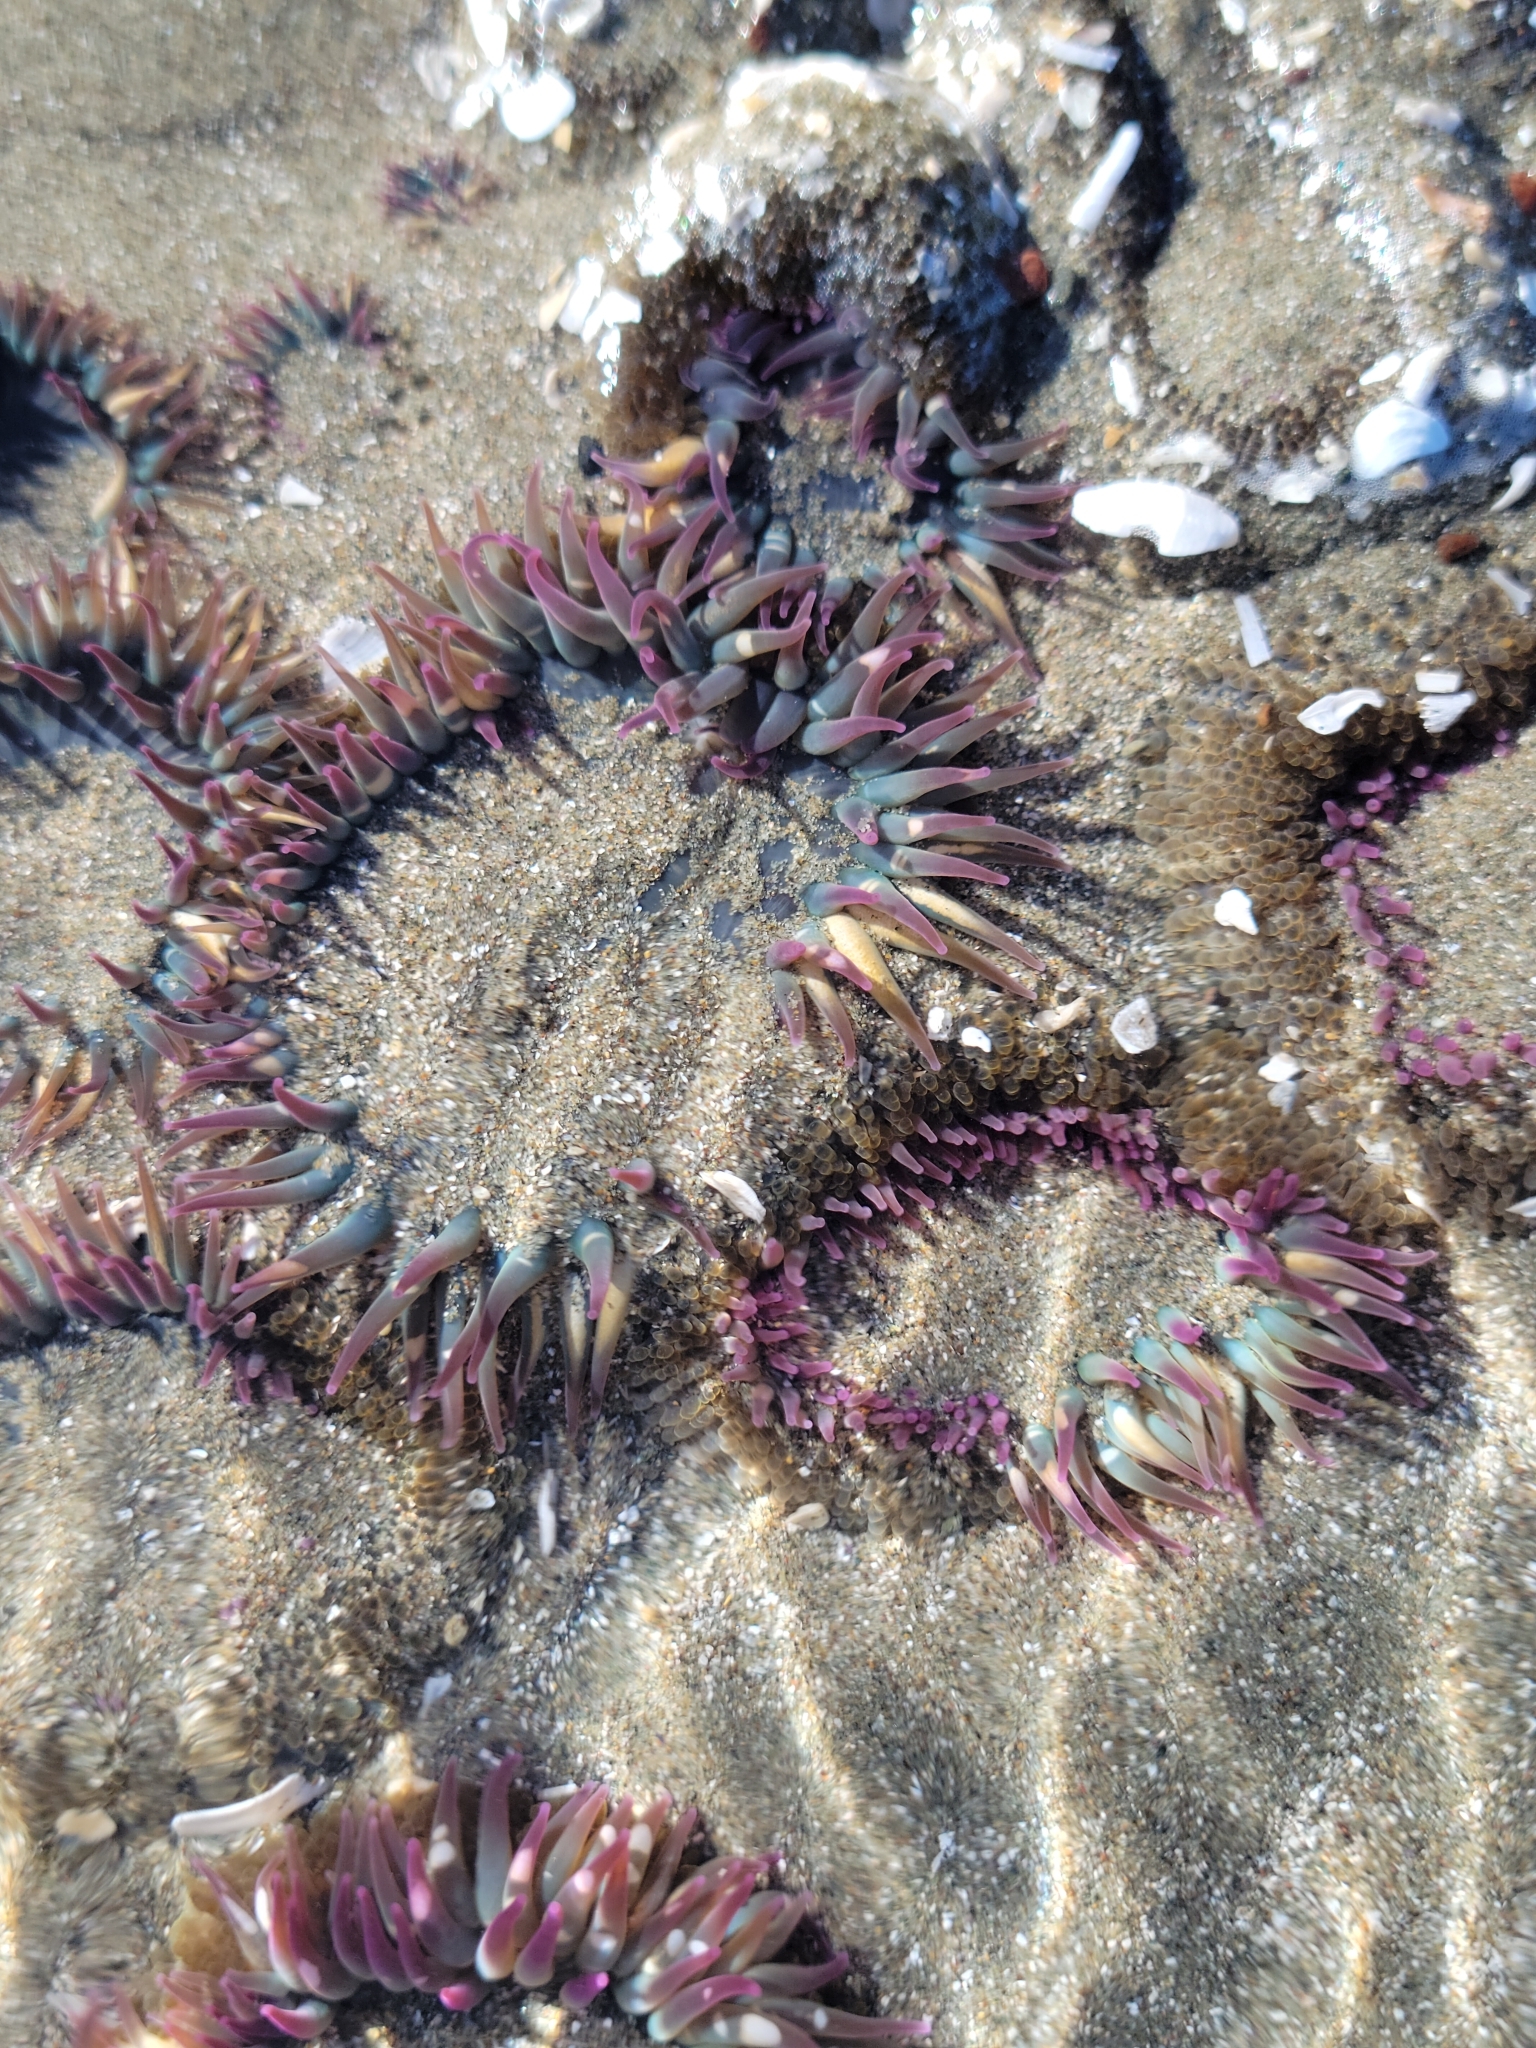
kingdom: Animalia
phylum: Cnidaria
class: Anthozoa
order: Actiniaria
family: Actiniidae
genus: Anthopleura
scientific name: Anthopleura elegantissima
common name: Clonal anemone
